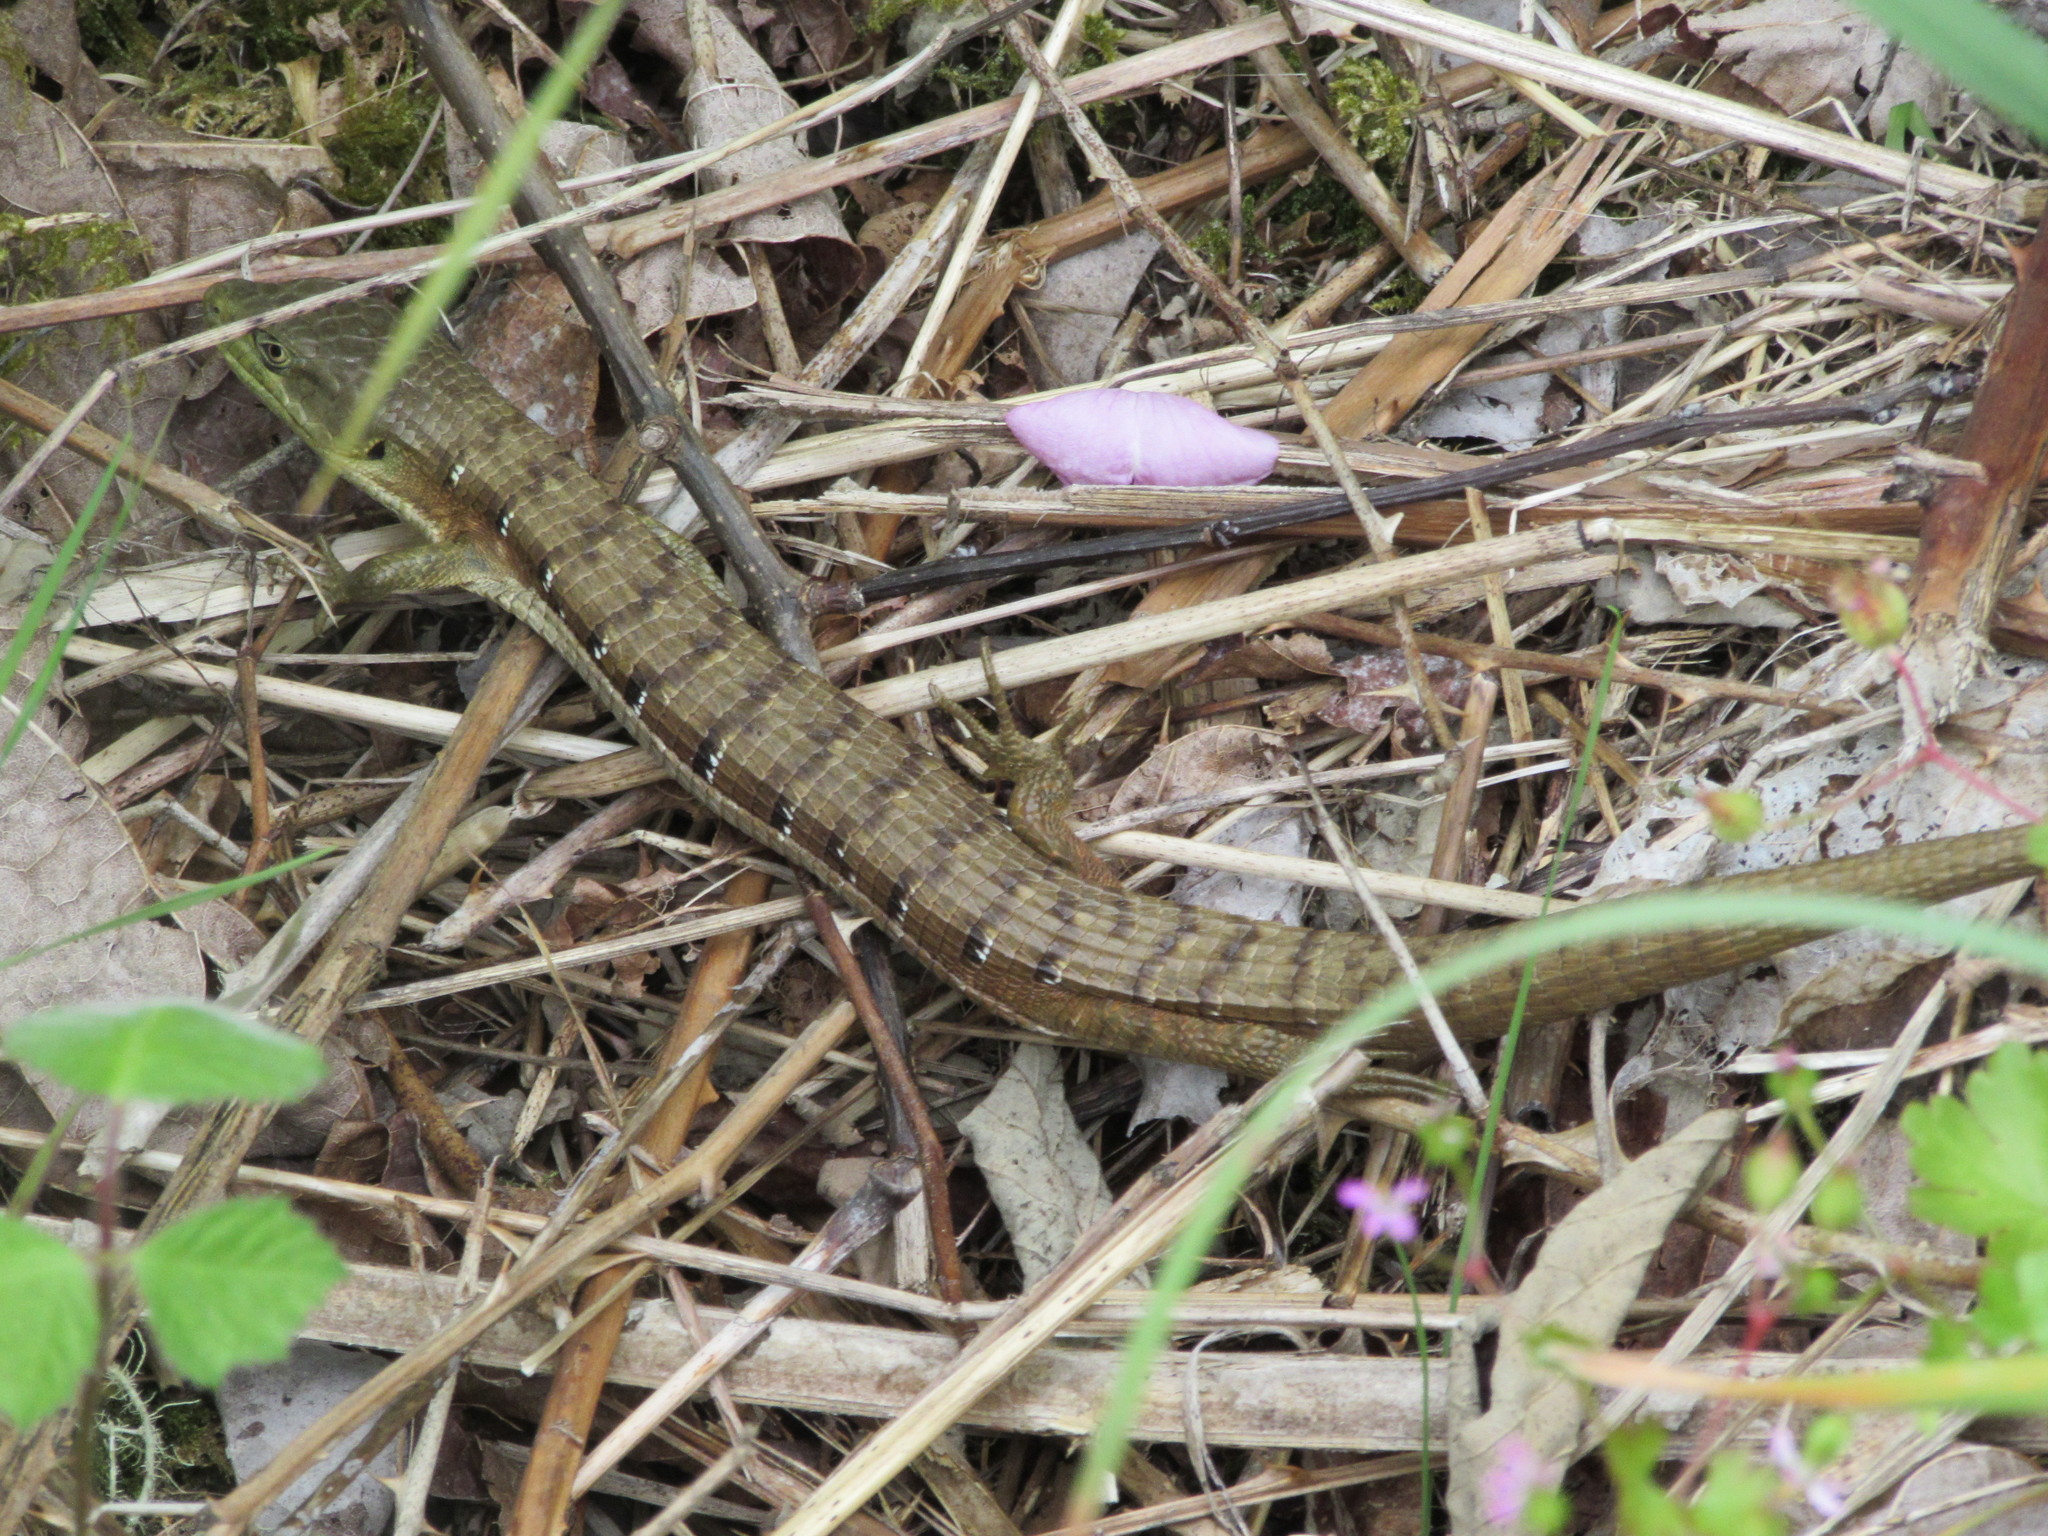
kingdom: Animalia
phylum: Chordata
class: Squamata
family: Anguidae
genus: Elgaria
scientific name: Elgaria multicarinata
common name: Southern alligator lizard
